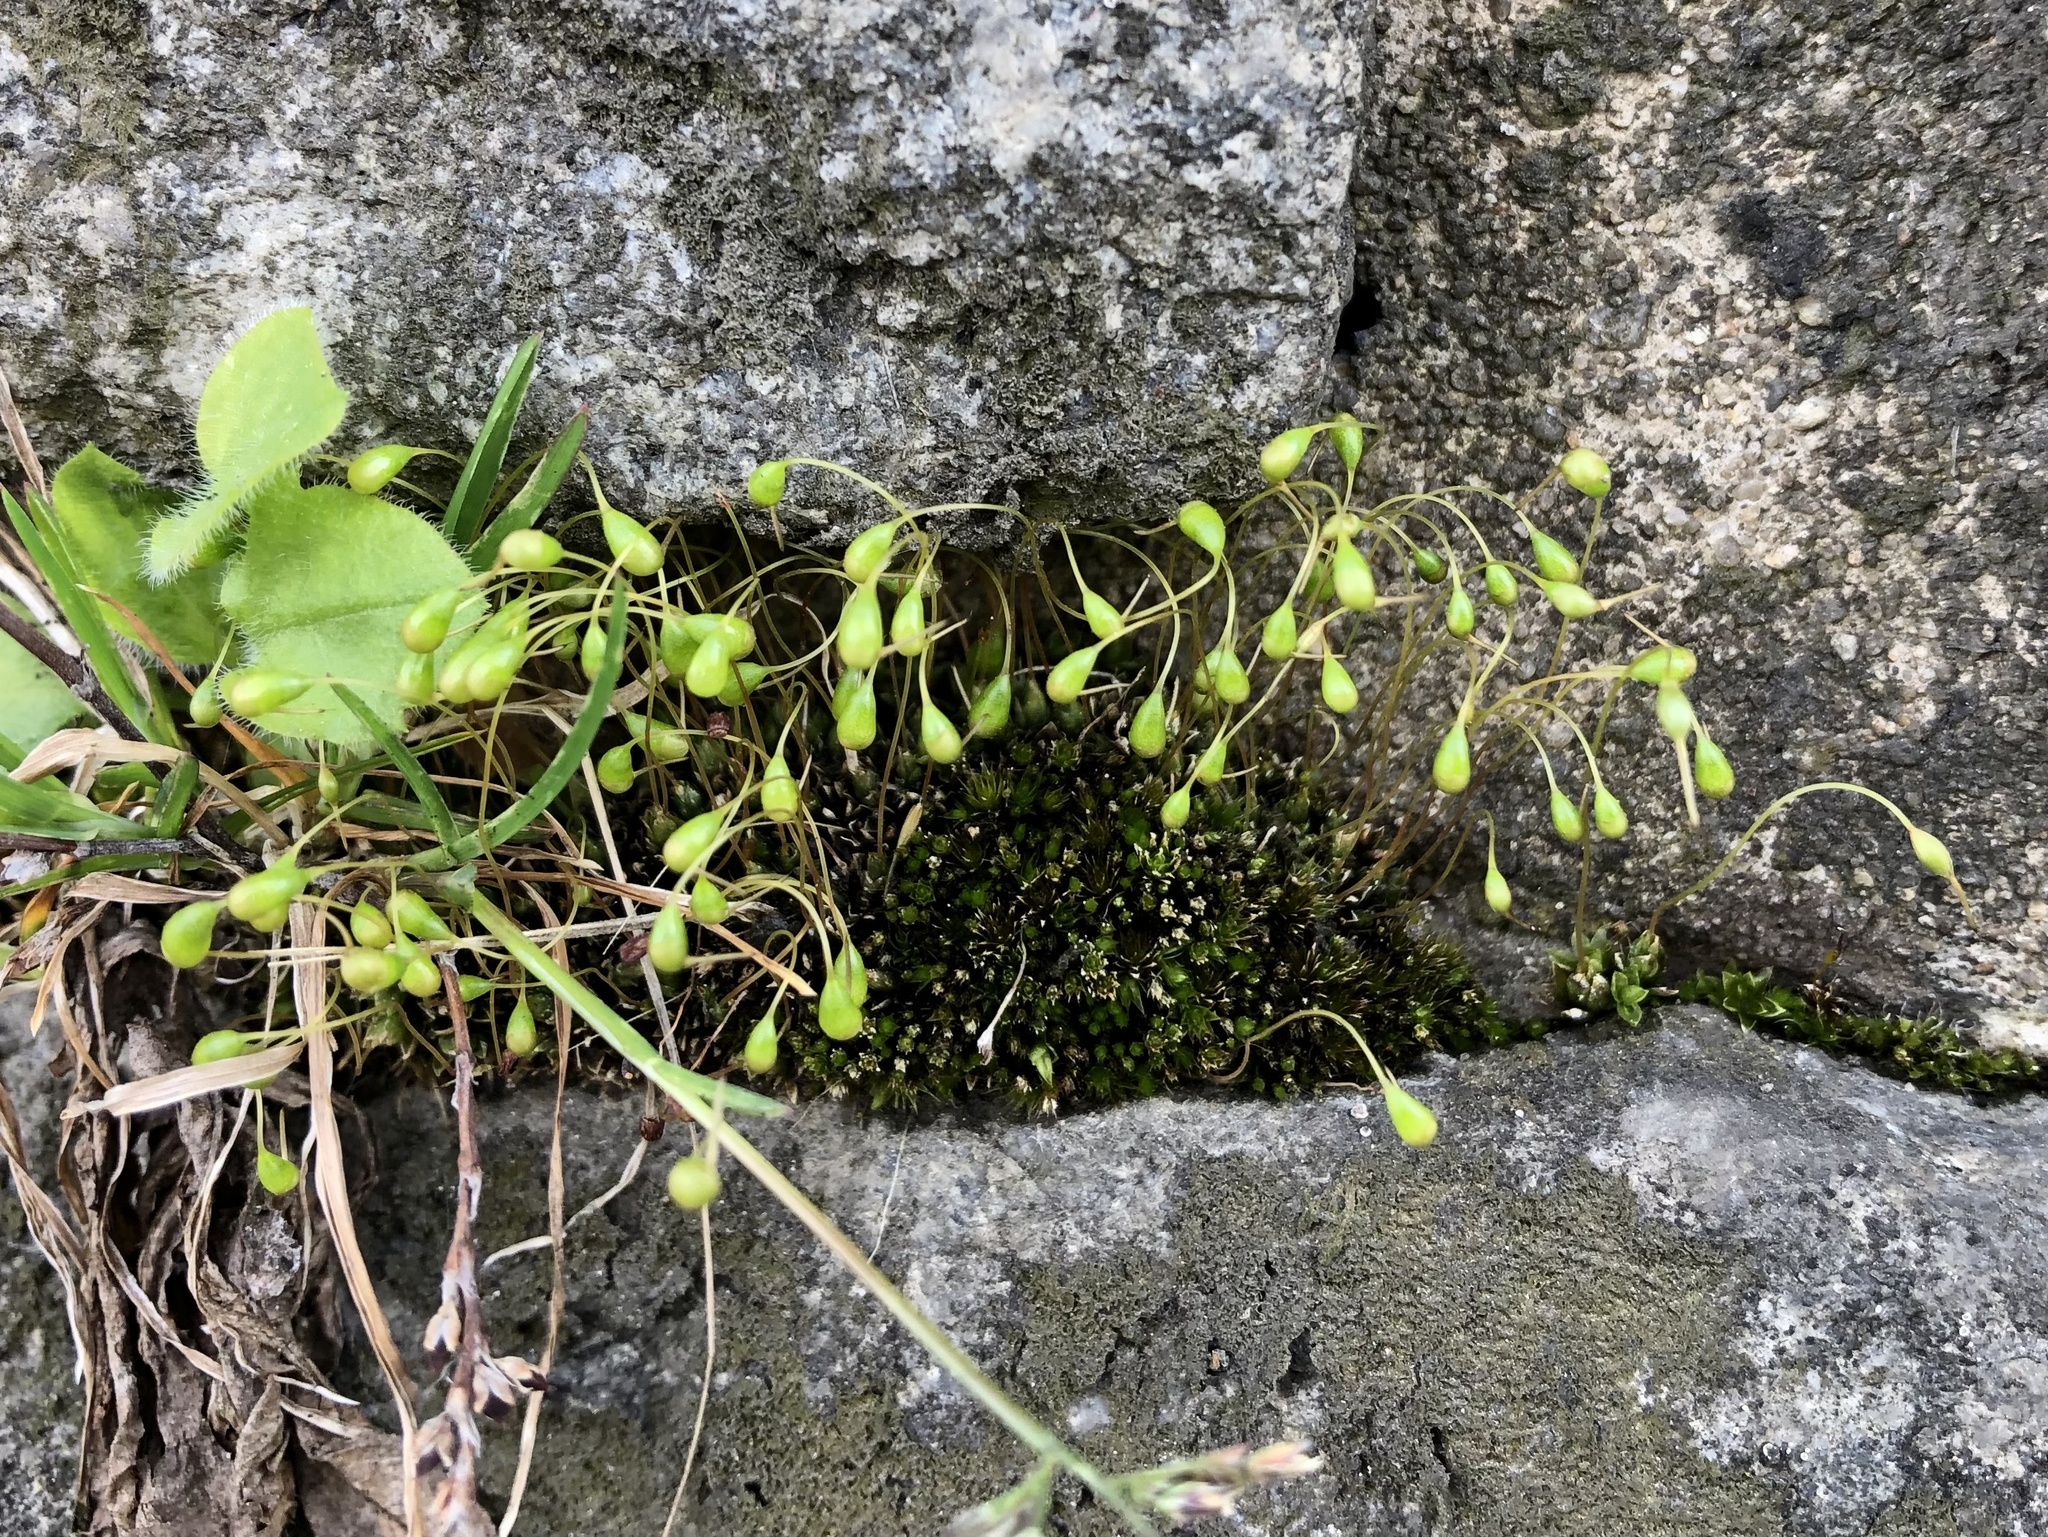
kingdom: Plantae
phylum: Bryophyta
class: Bryopsida
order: Funariales
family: Funariaceae
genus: Funaria
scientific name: Funaria hygrometrica
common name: Common cord moss
